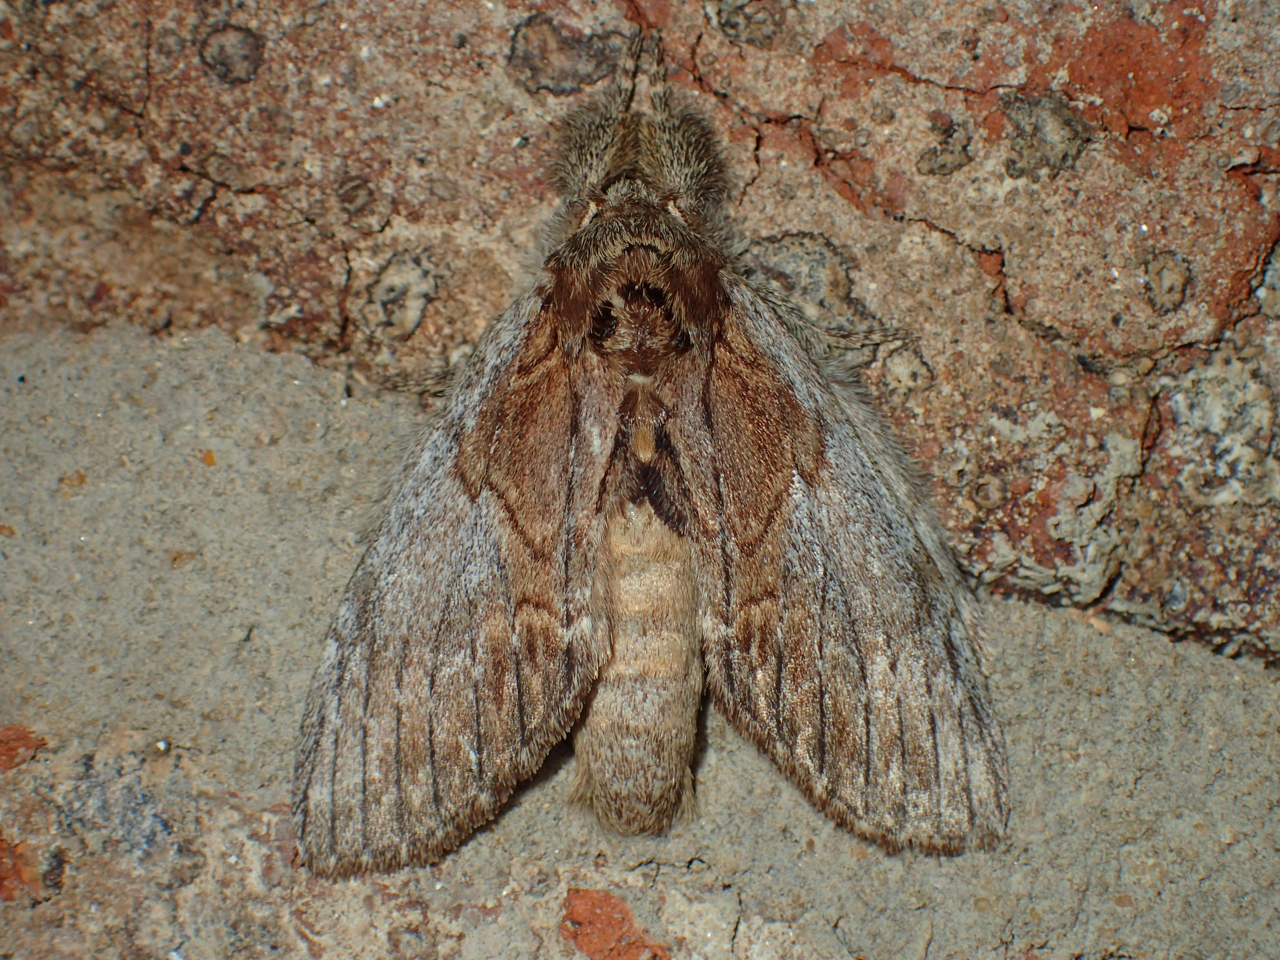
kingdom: Animalia
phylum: Arthropoda
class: Insecta
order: Lepidoptera
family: Notodontidae
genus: Peridea
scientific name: Peridea basitriens
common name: Oval-based prominent
